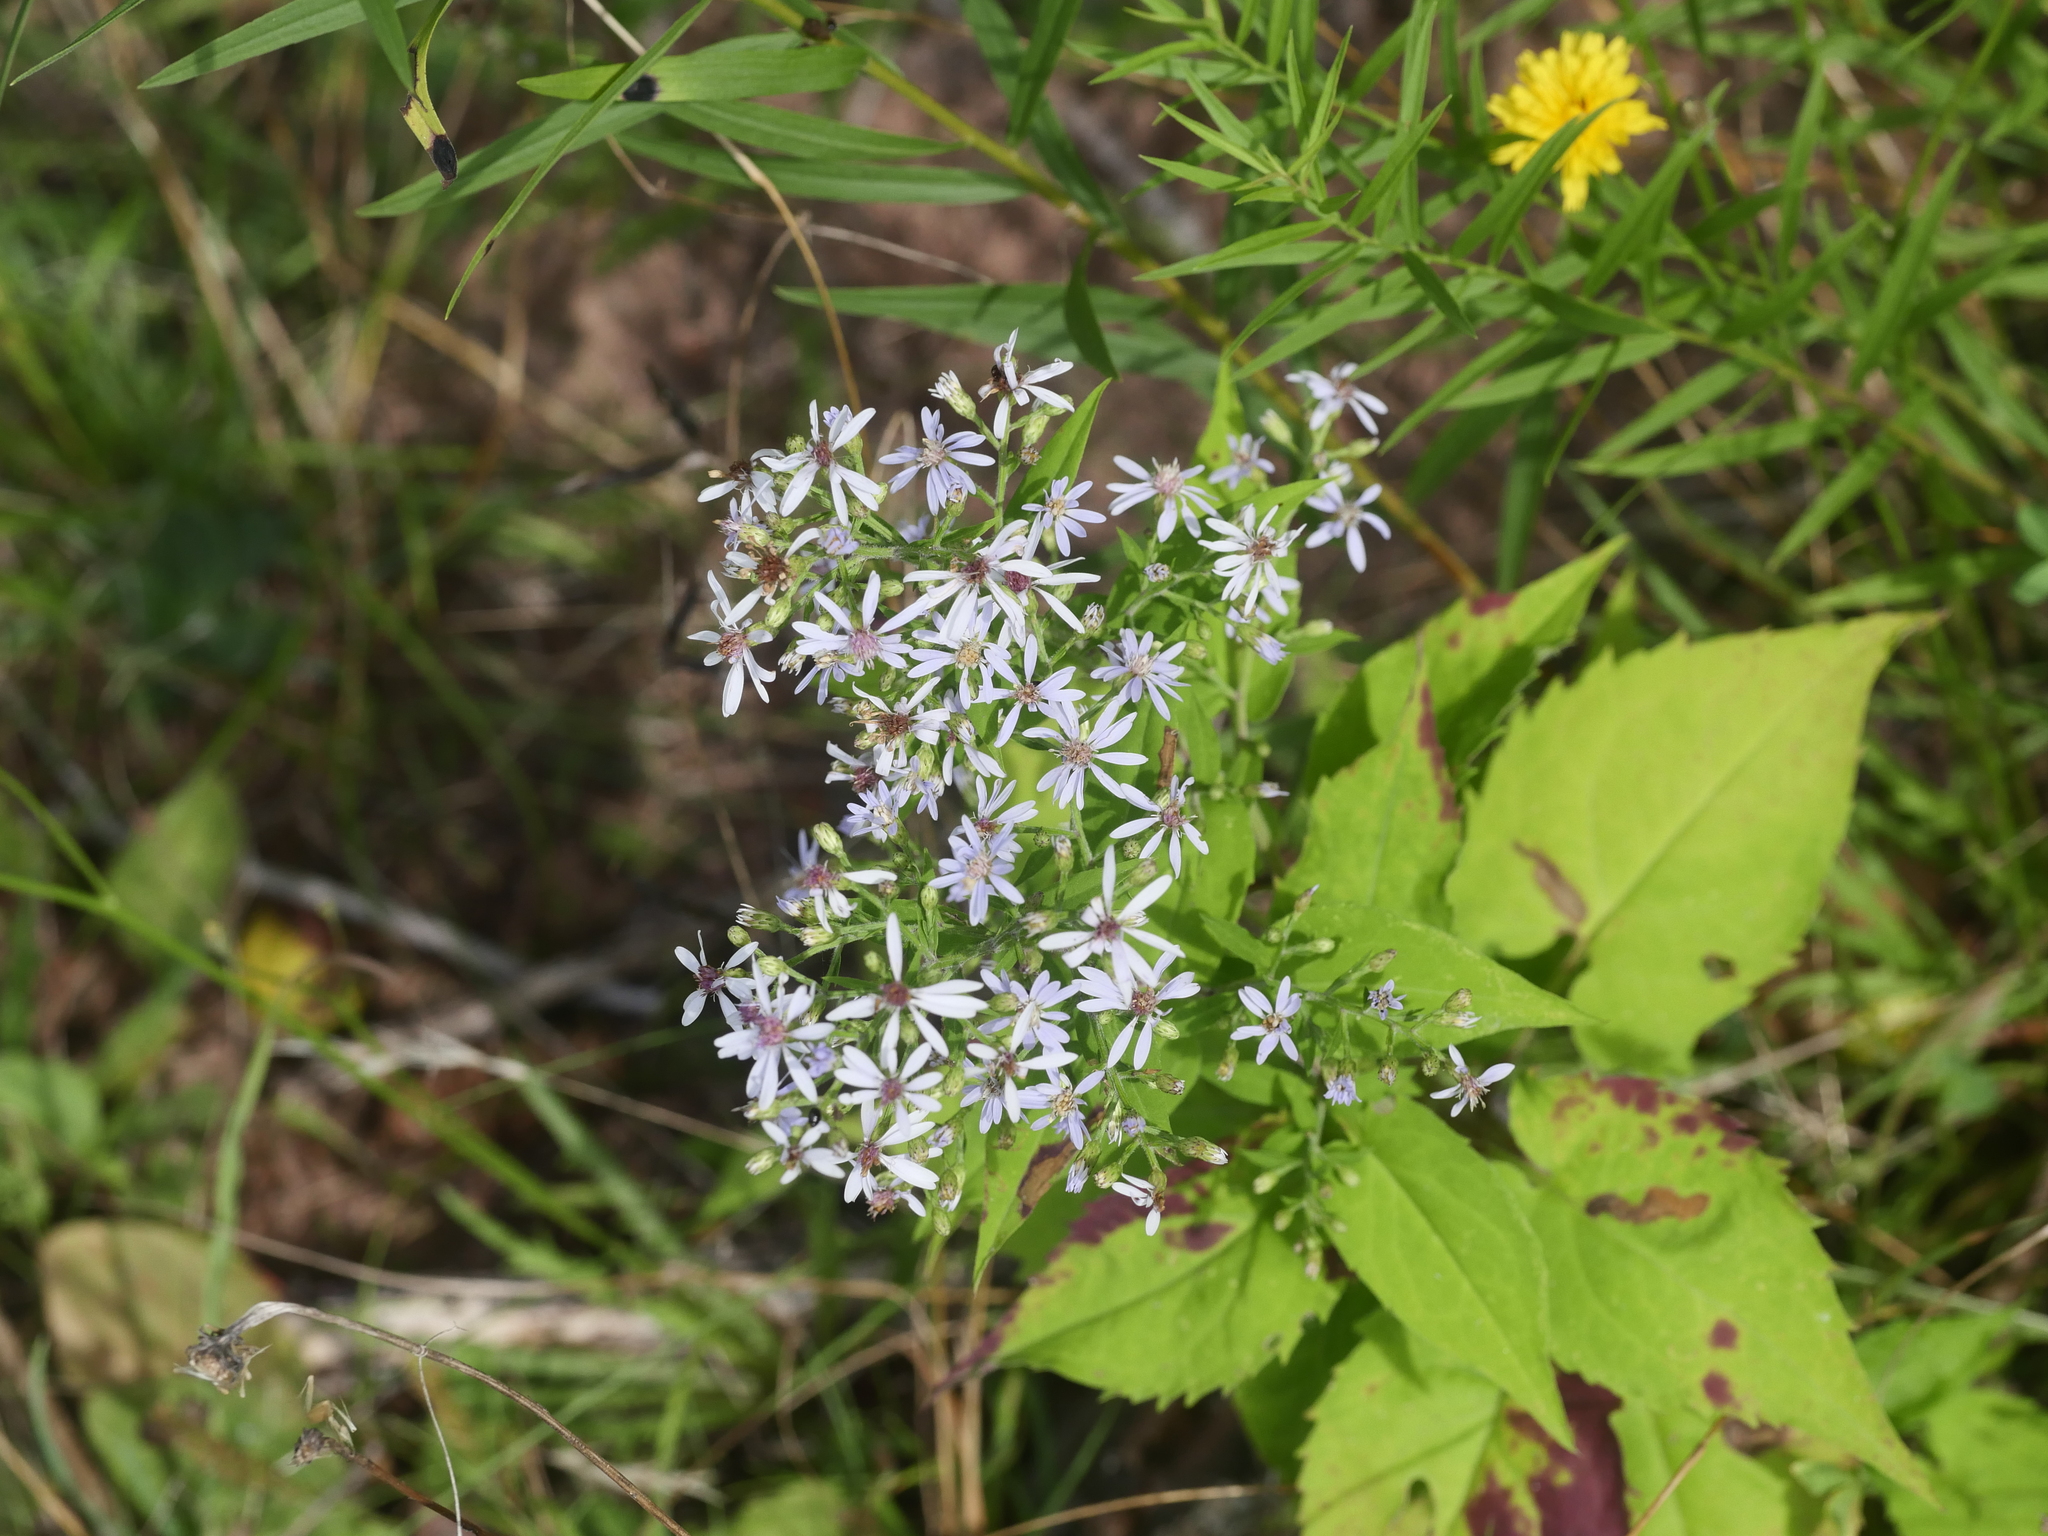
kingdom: Plantae
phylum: Tracheophyta
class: Magnoliopsida
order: Asterales
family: Asteraceae
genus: Symphyotrichum
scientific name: Symphyotrichum cordifolium
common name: Beeweed
